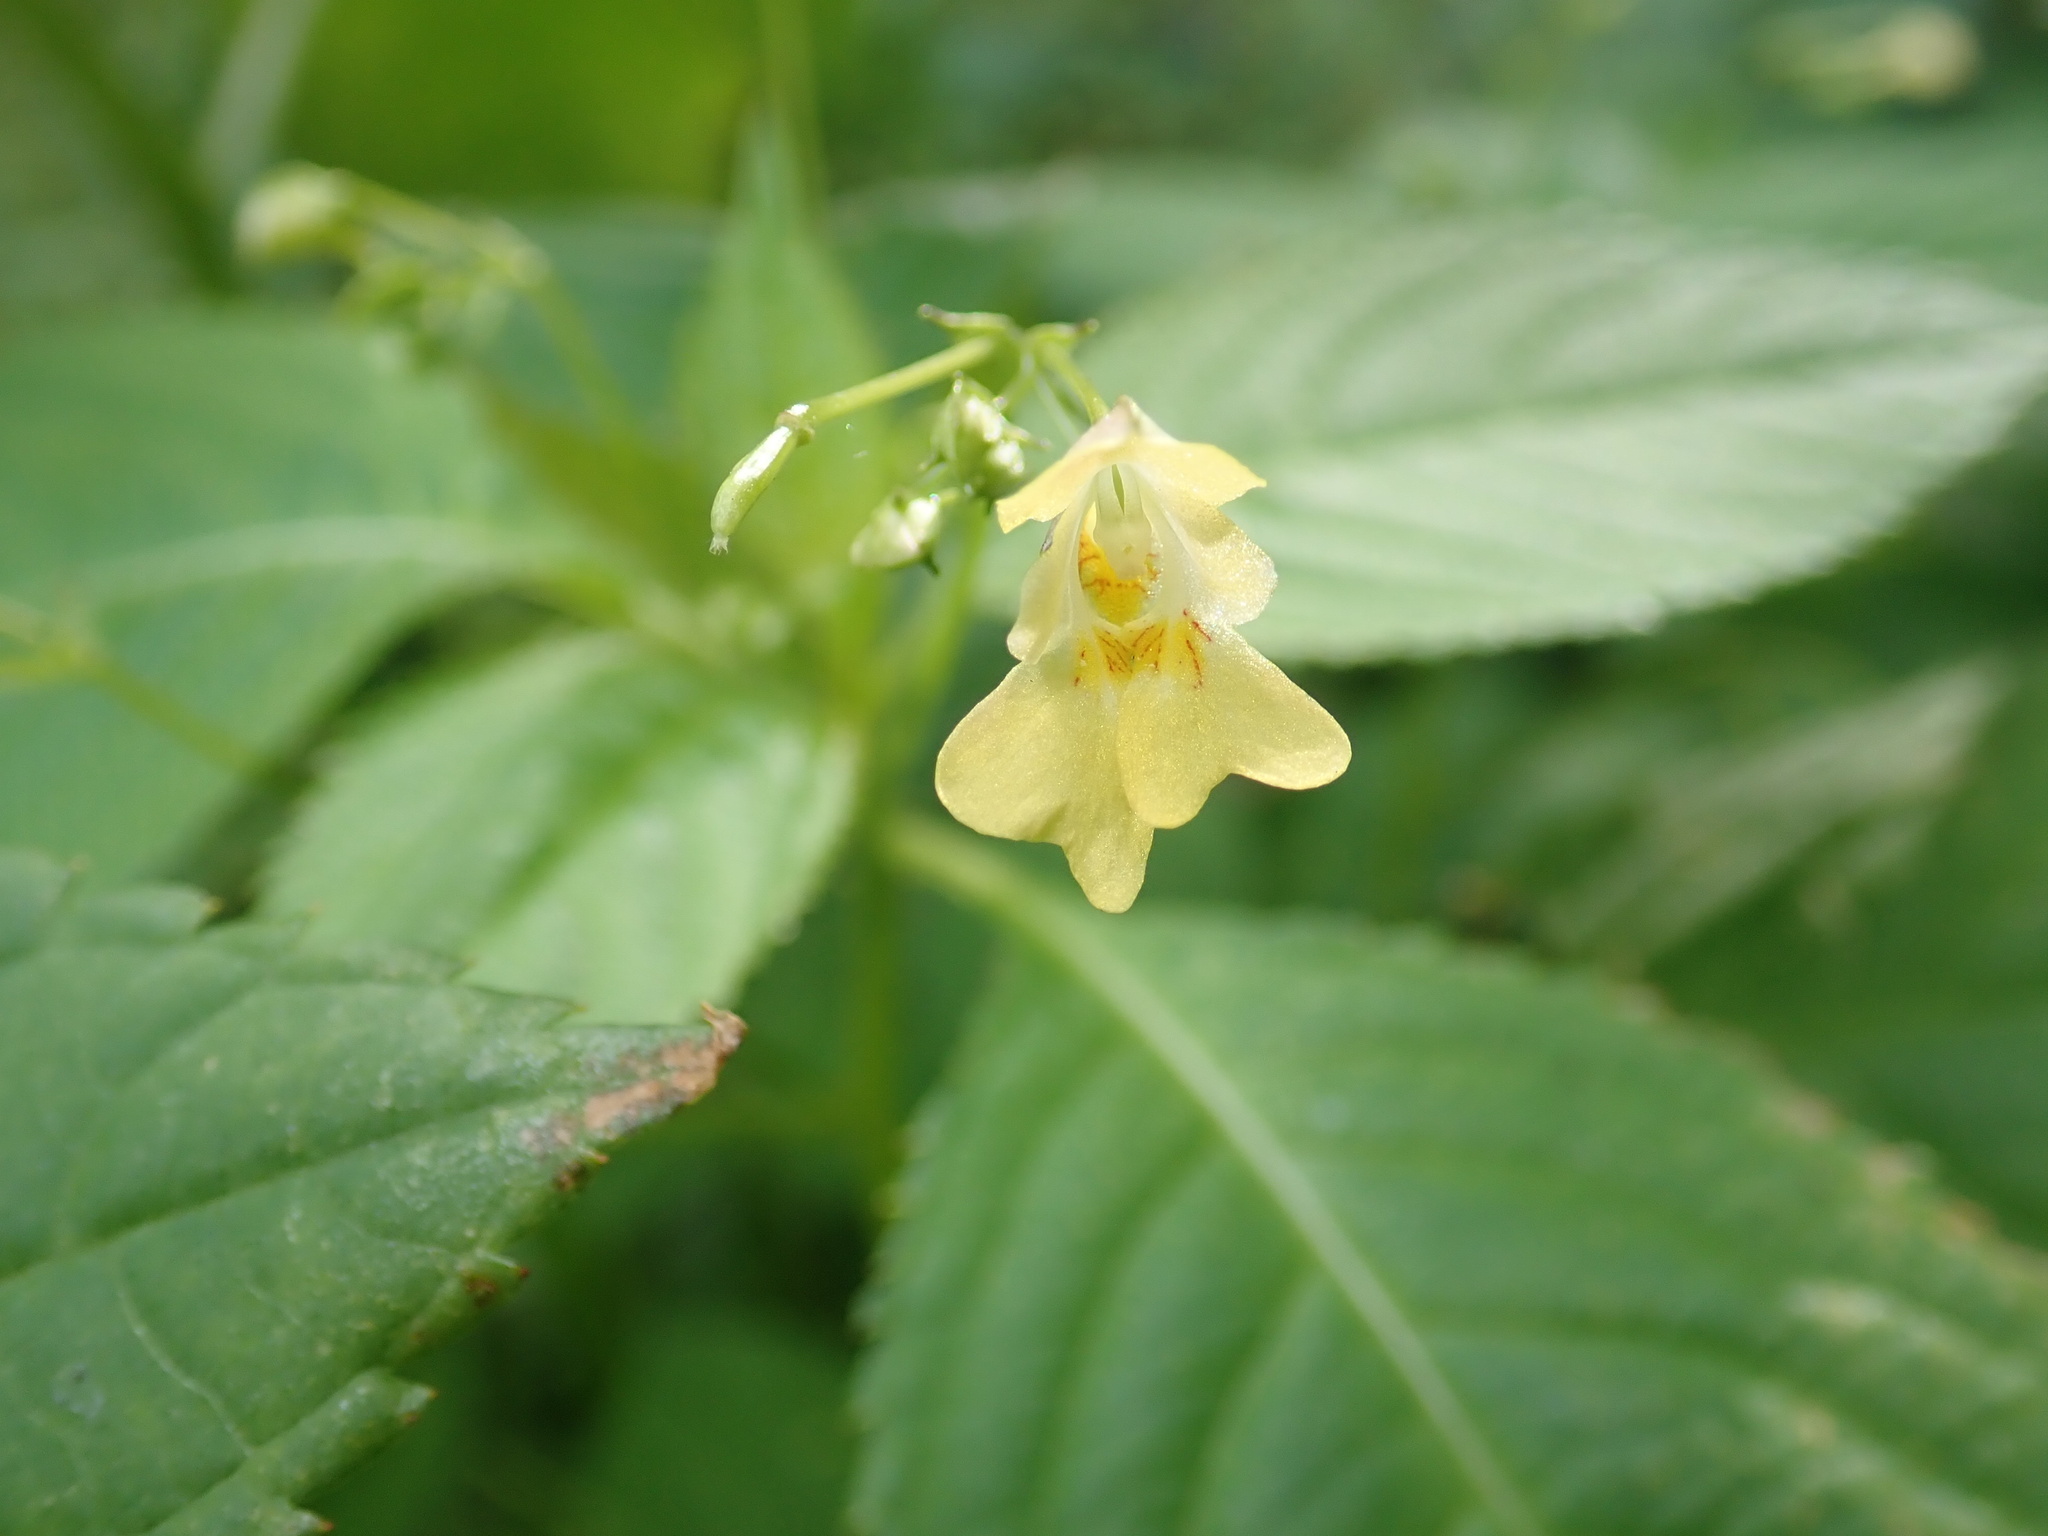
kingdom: Plantae
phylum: Tracheophyta
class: Magnoliopsida
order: Ericales
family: Balsaminaceae
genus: Impatiens
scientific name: Impatiens parviflora
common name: Small balsam
